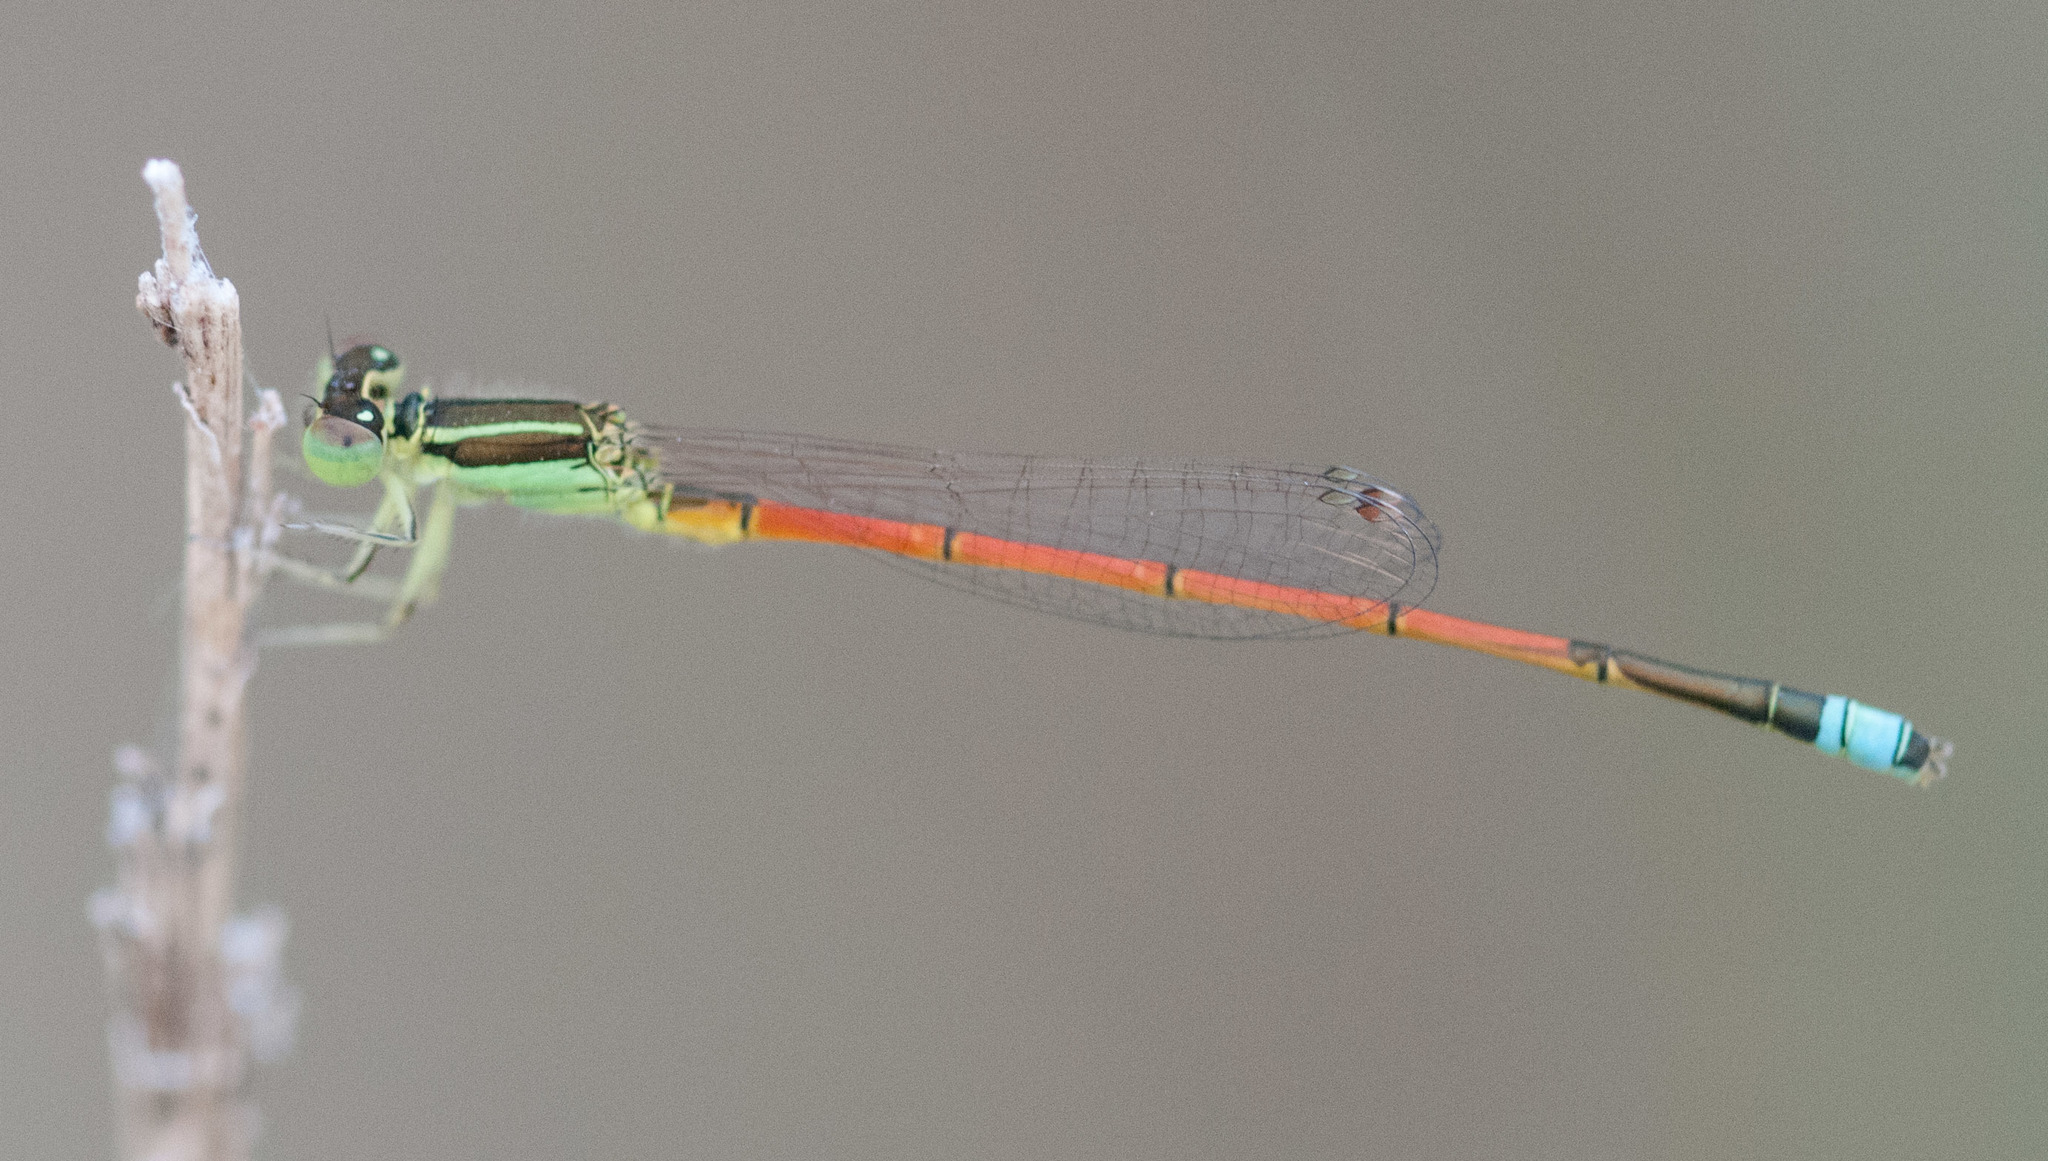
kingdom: Animalia
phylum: Arthropoda
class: Insecta
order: Odonata
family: Coenagrionidae
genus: Ischnura
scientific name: Ischnura aurora
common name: Gossamer damselfly
